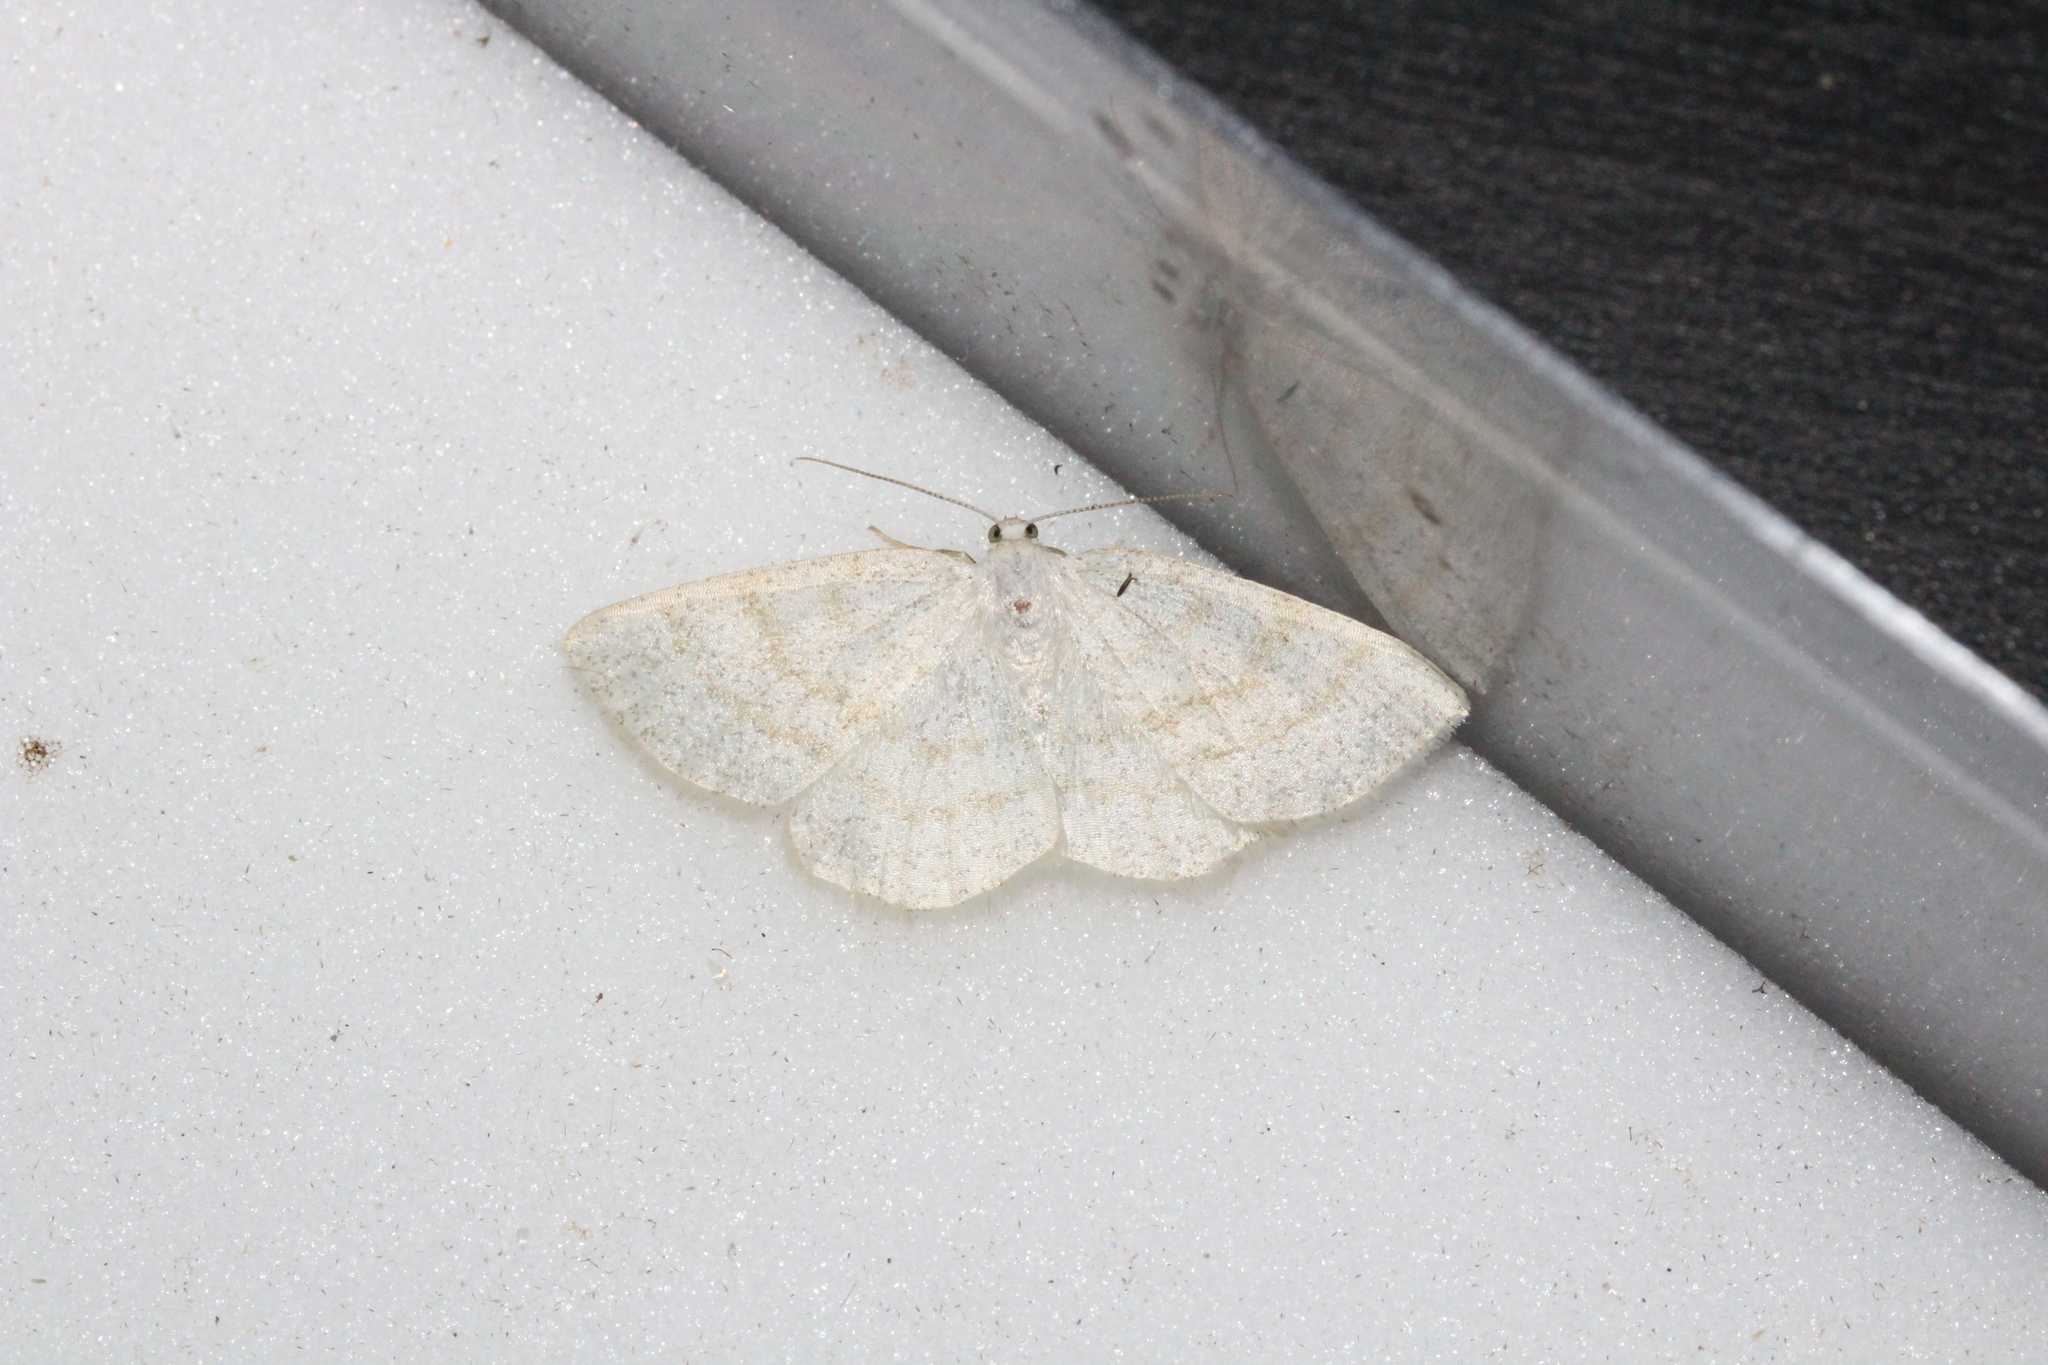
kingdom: Animalia
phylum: Arthropoda
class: Insecta
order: Lepidoptera
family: Geometridae
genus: Cabera
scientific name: Cabera exanthemata
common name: Common wave
